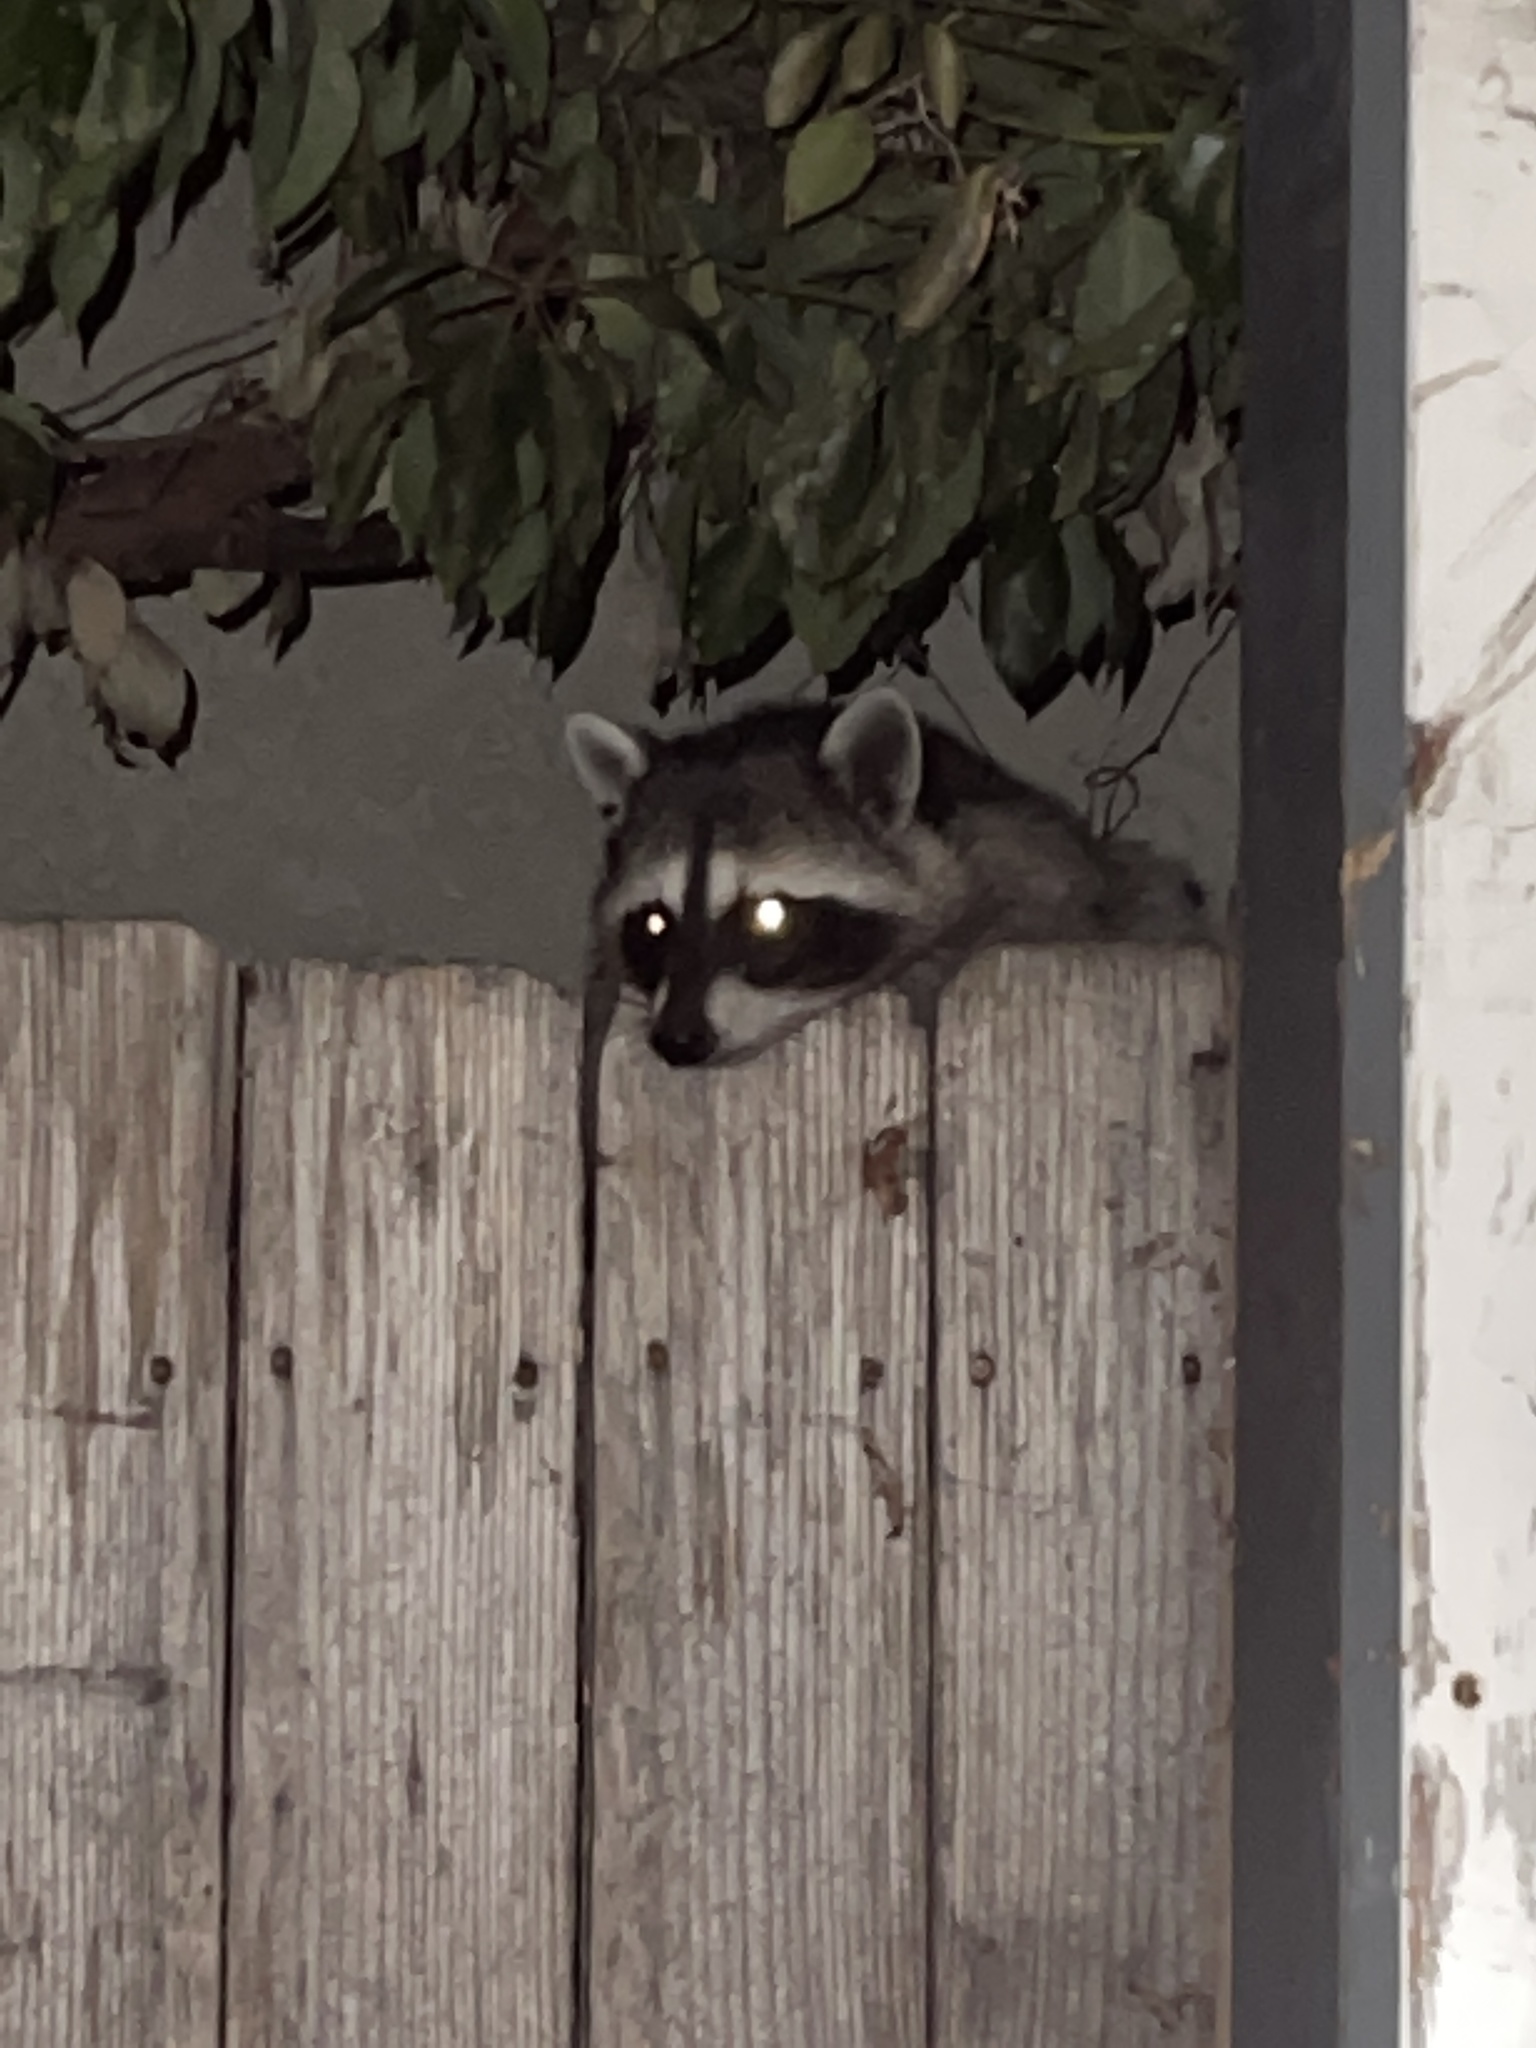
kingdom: Animalia
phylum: Chordata
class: Mammalia
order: Carnivora
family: Procyonidae
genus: Procyon
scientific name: Procyon lotor
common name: Raccoon
